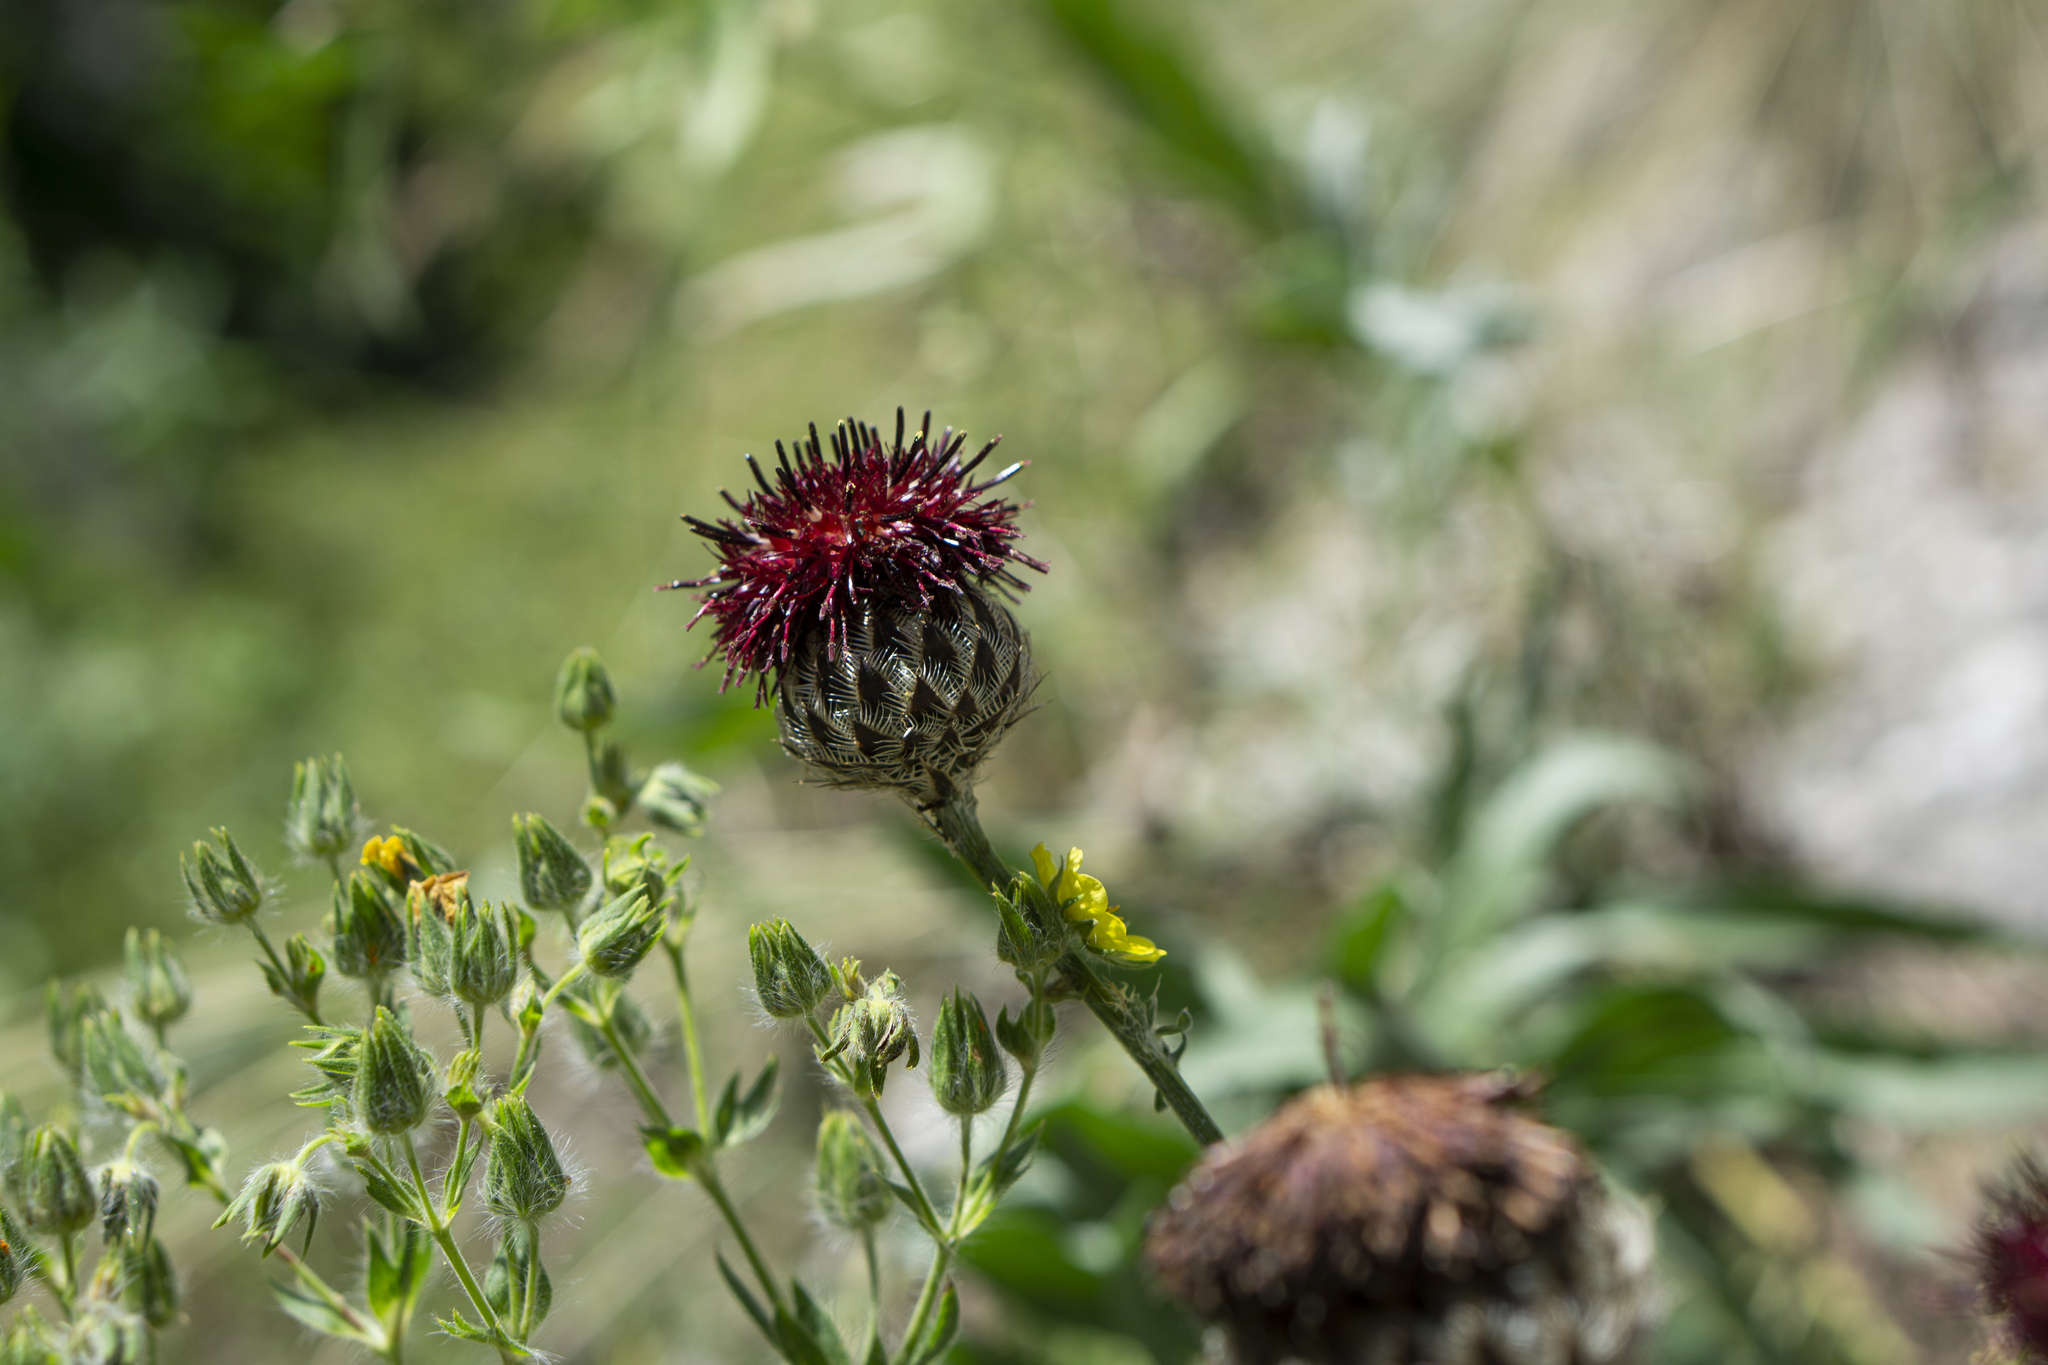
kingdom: Plantae
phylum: Tracheophyta
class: Magnoliopsida
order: Asterales
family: Asteraceae
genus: Centaurea
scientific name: Centaurea calocephala
